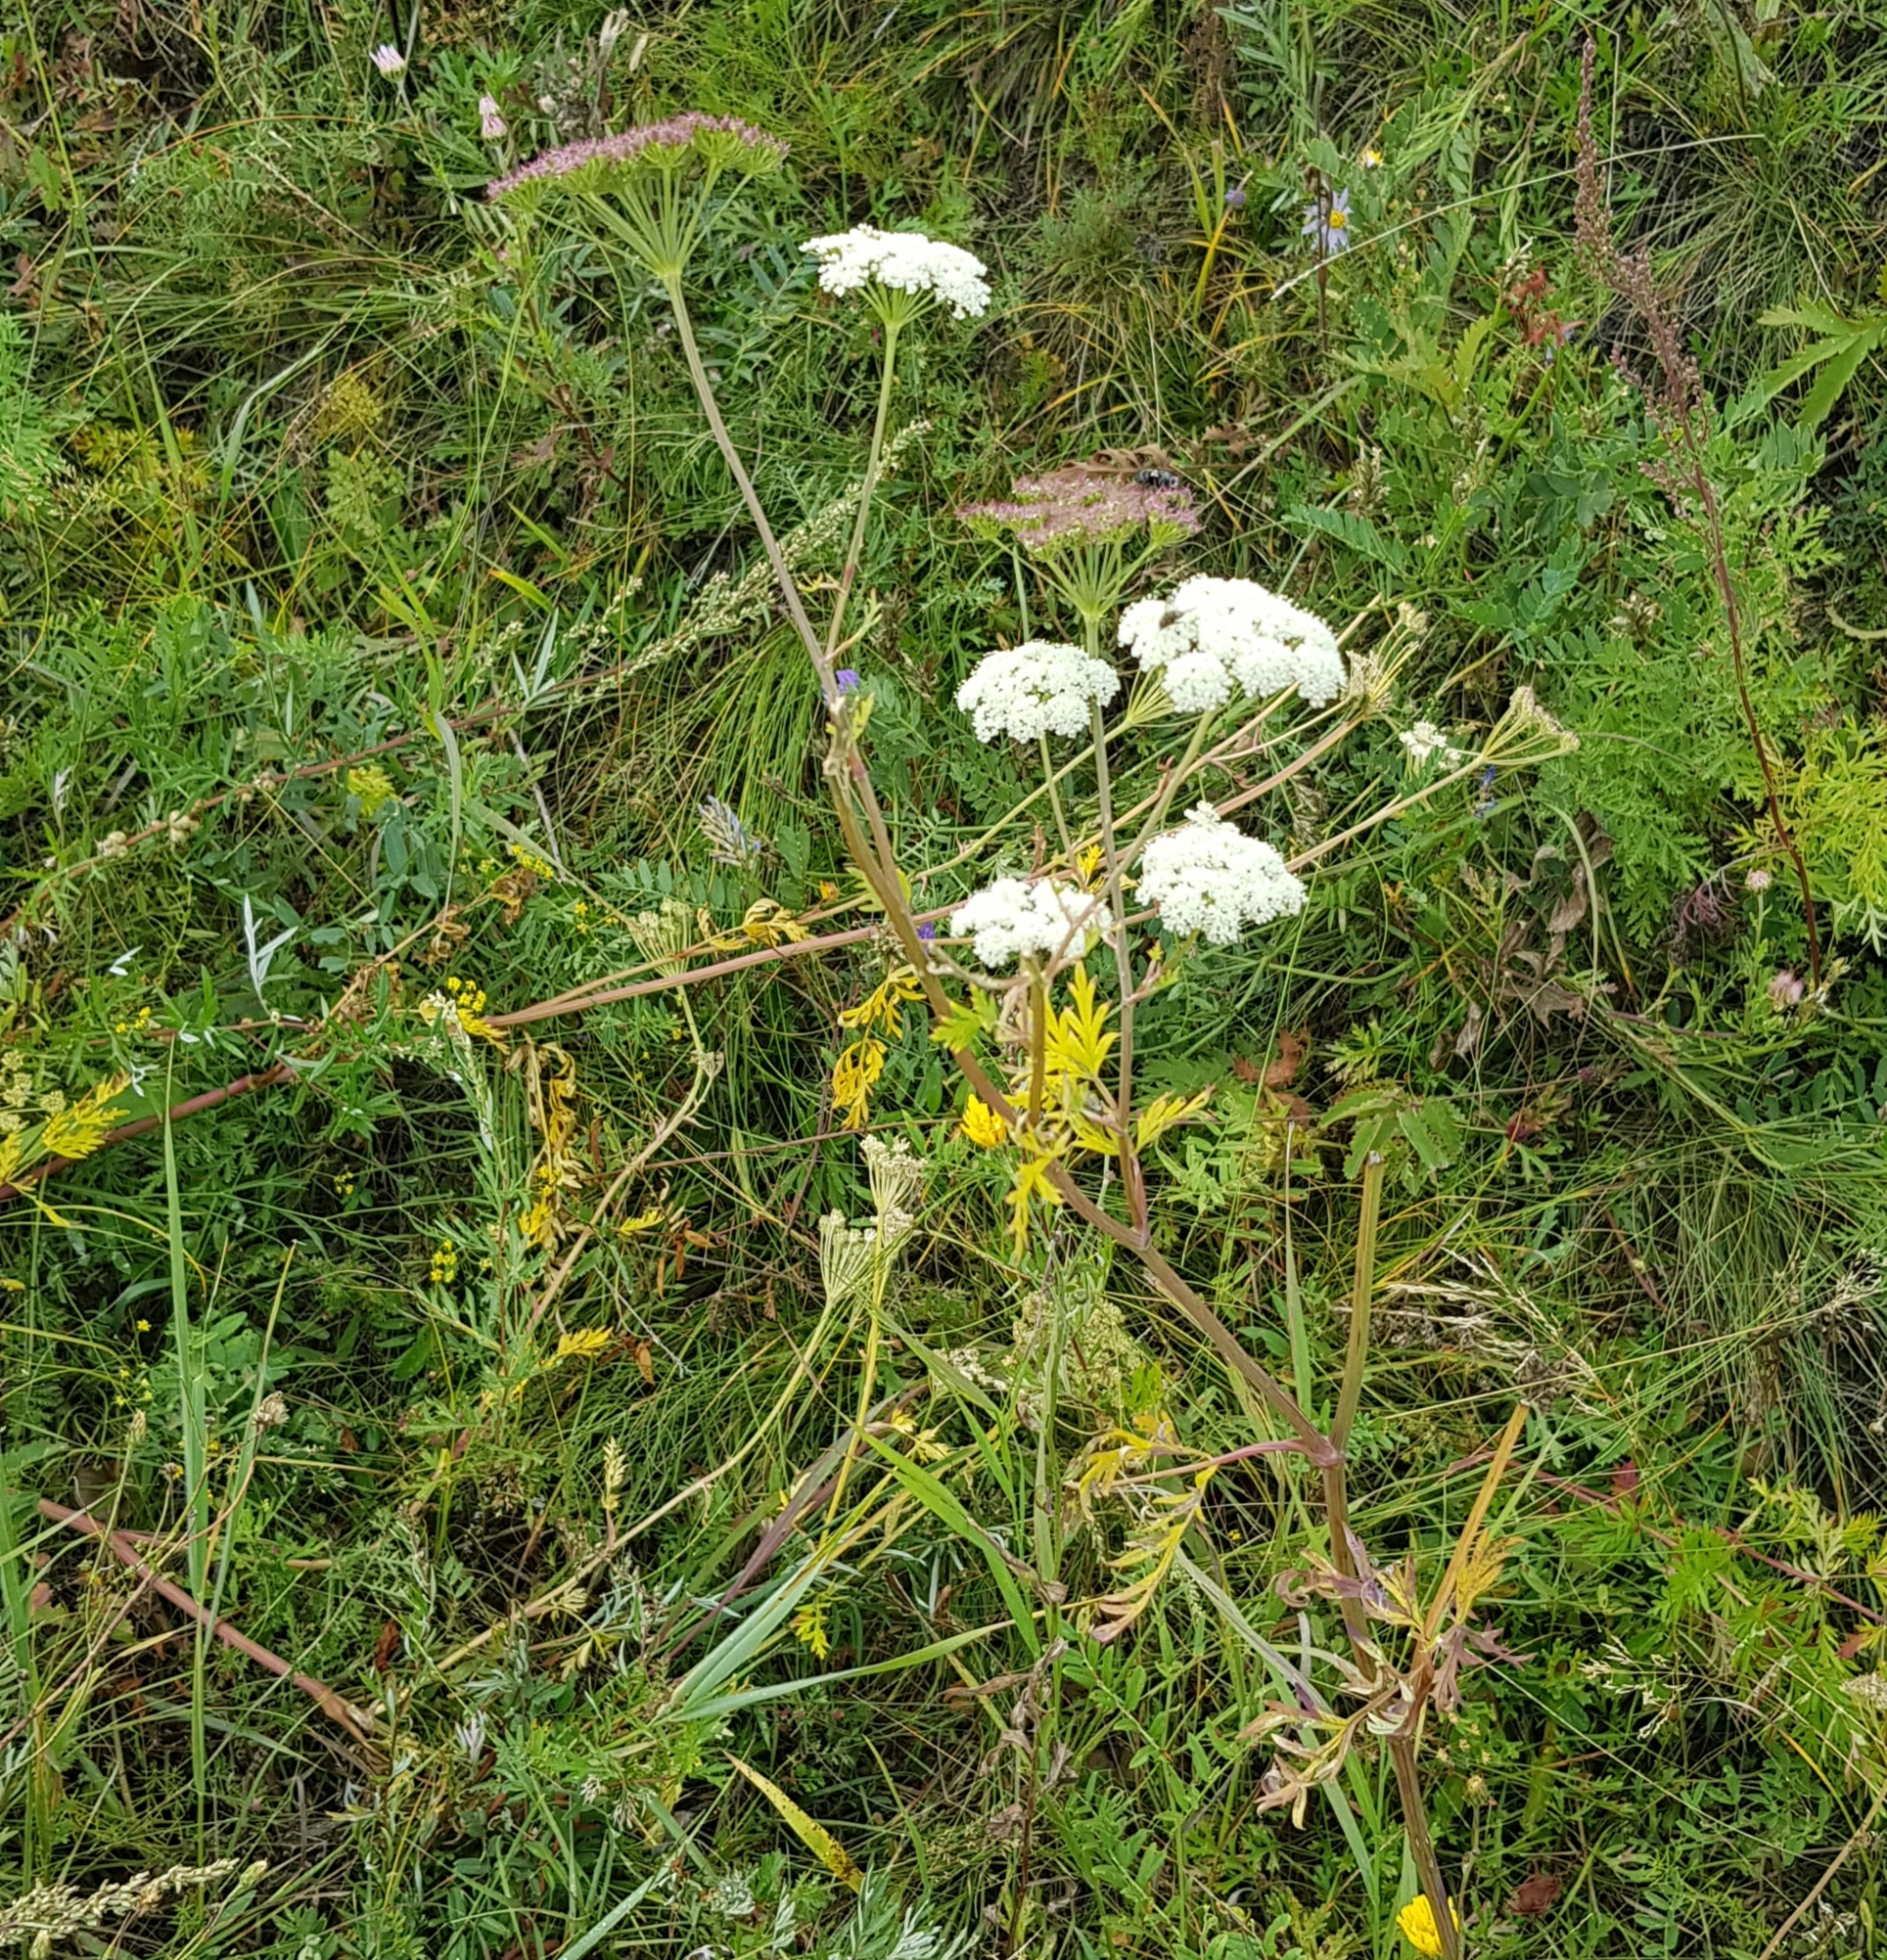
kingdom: Plantae
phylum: Tracheophyta
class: Magnoliopsida
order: Apiales
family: Apiaceae
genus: Conioselinum
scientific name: Conioselinum tataricum
